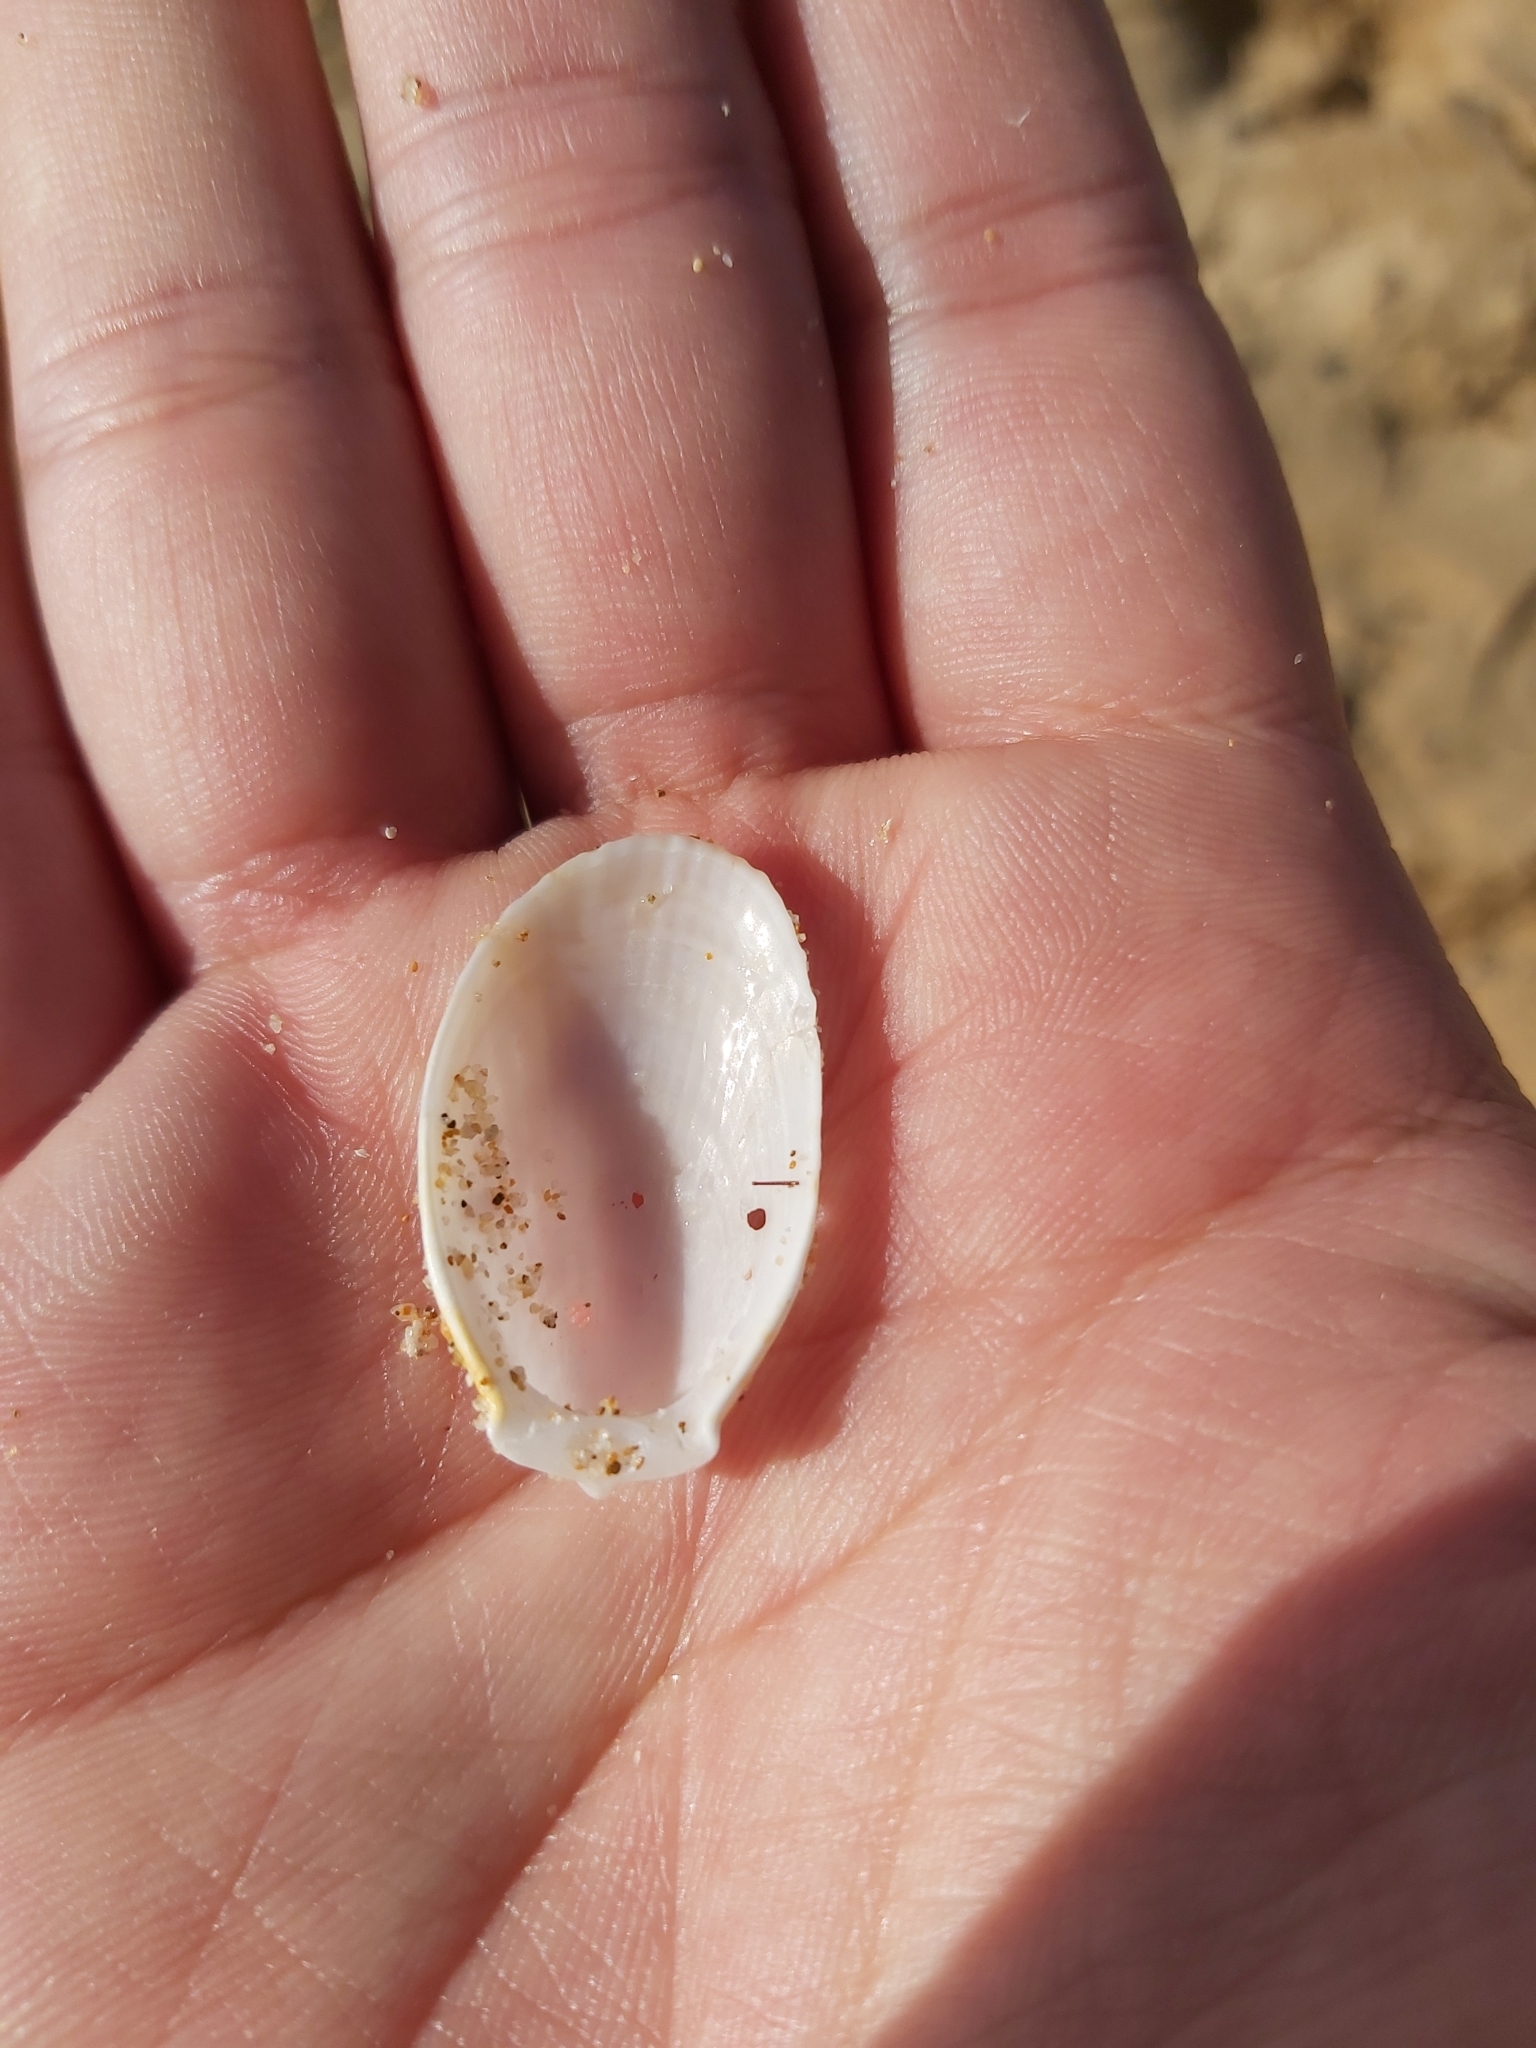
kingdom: Animalia
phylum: Mollusca
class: Bivalvia
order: Limida
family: Limidae
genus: Limatula
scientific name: Limatula strangei
